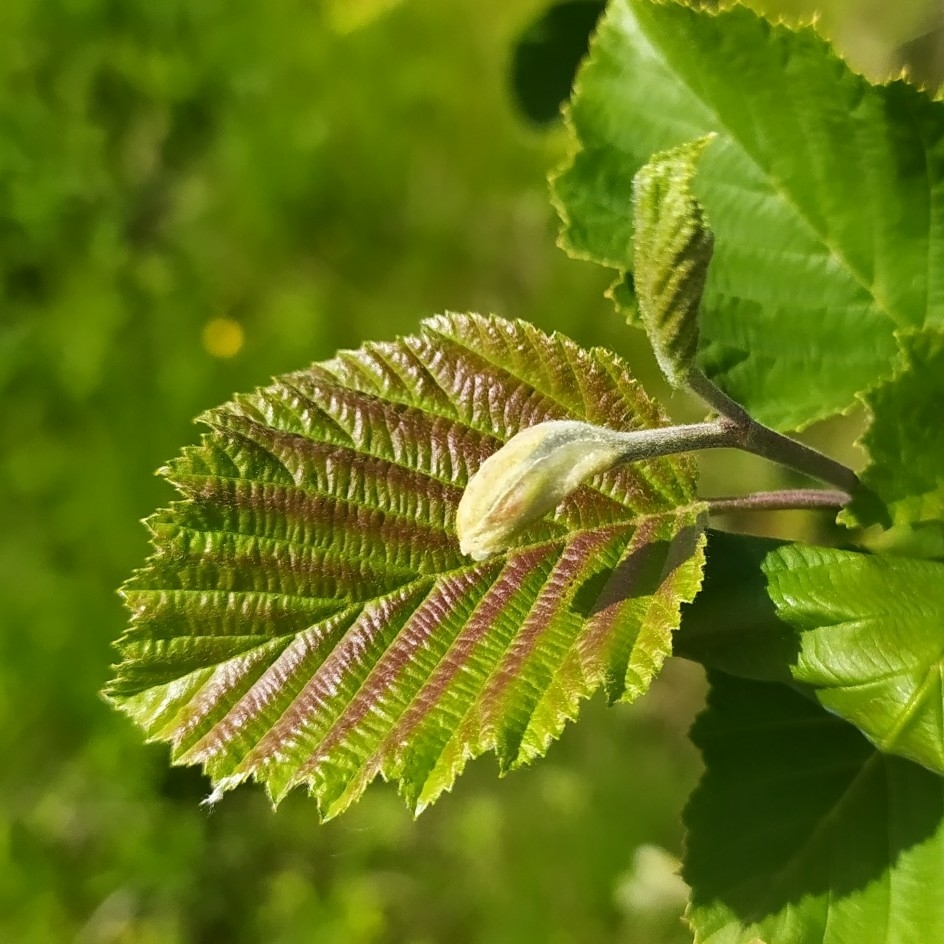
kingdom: Plantae
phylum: Tracheophyta
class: Magnoliopsida
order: Fagales
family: Betulaceae
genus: Alnus
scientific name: Alnus incana
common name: Grey alder
